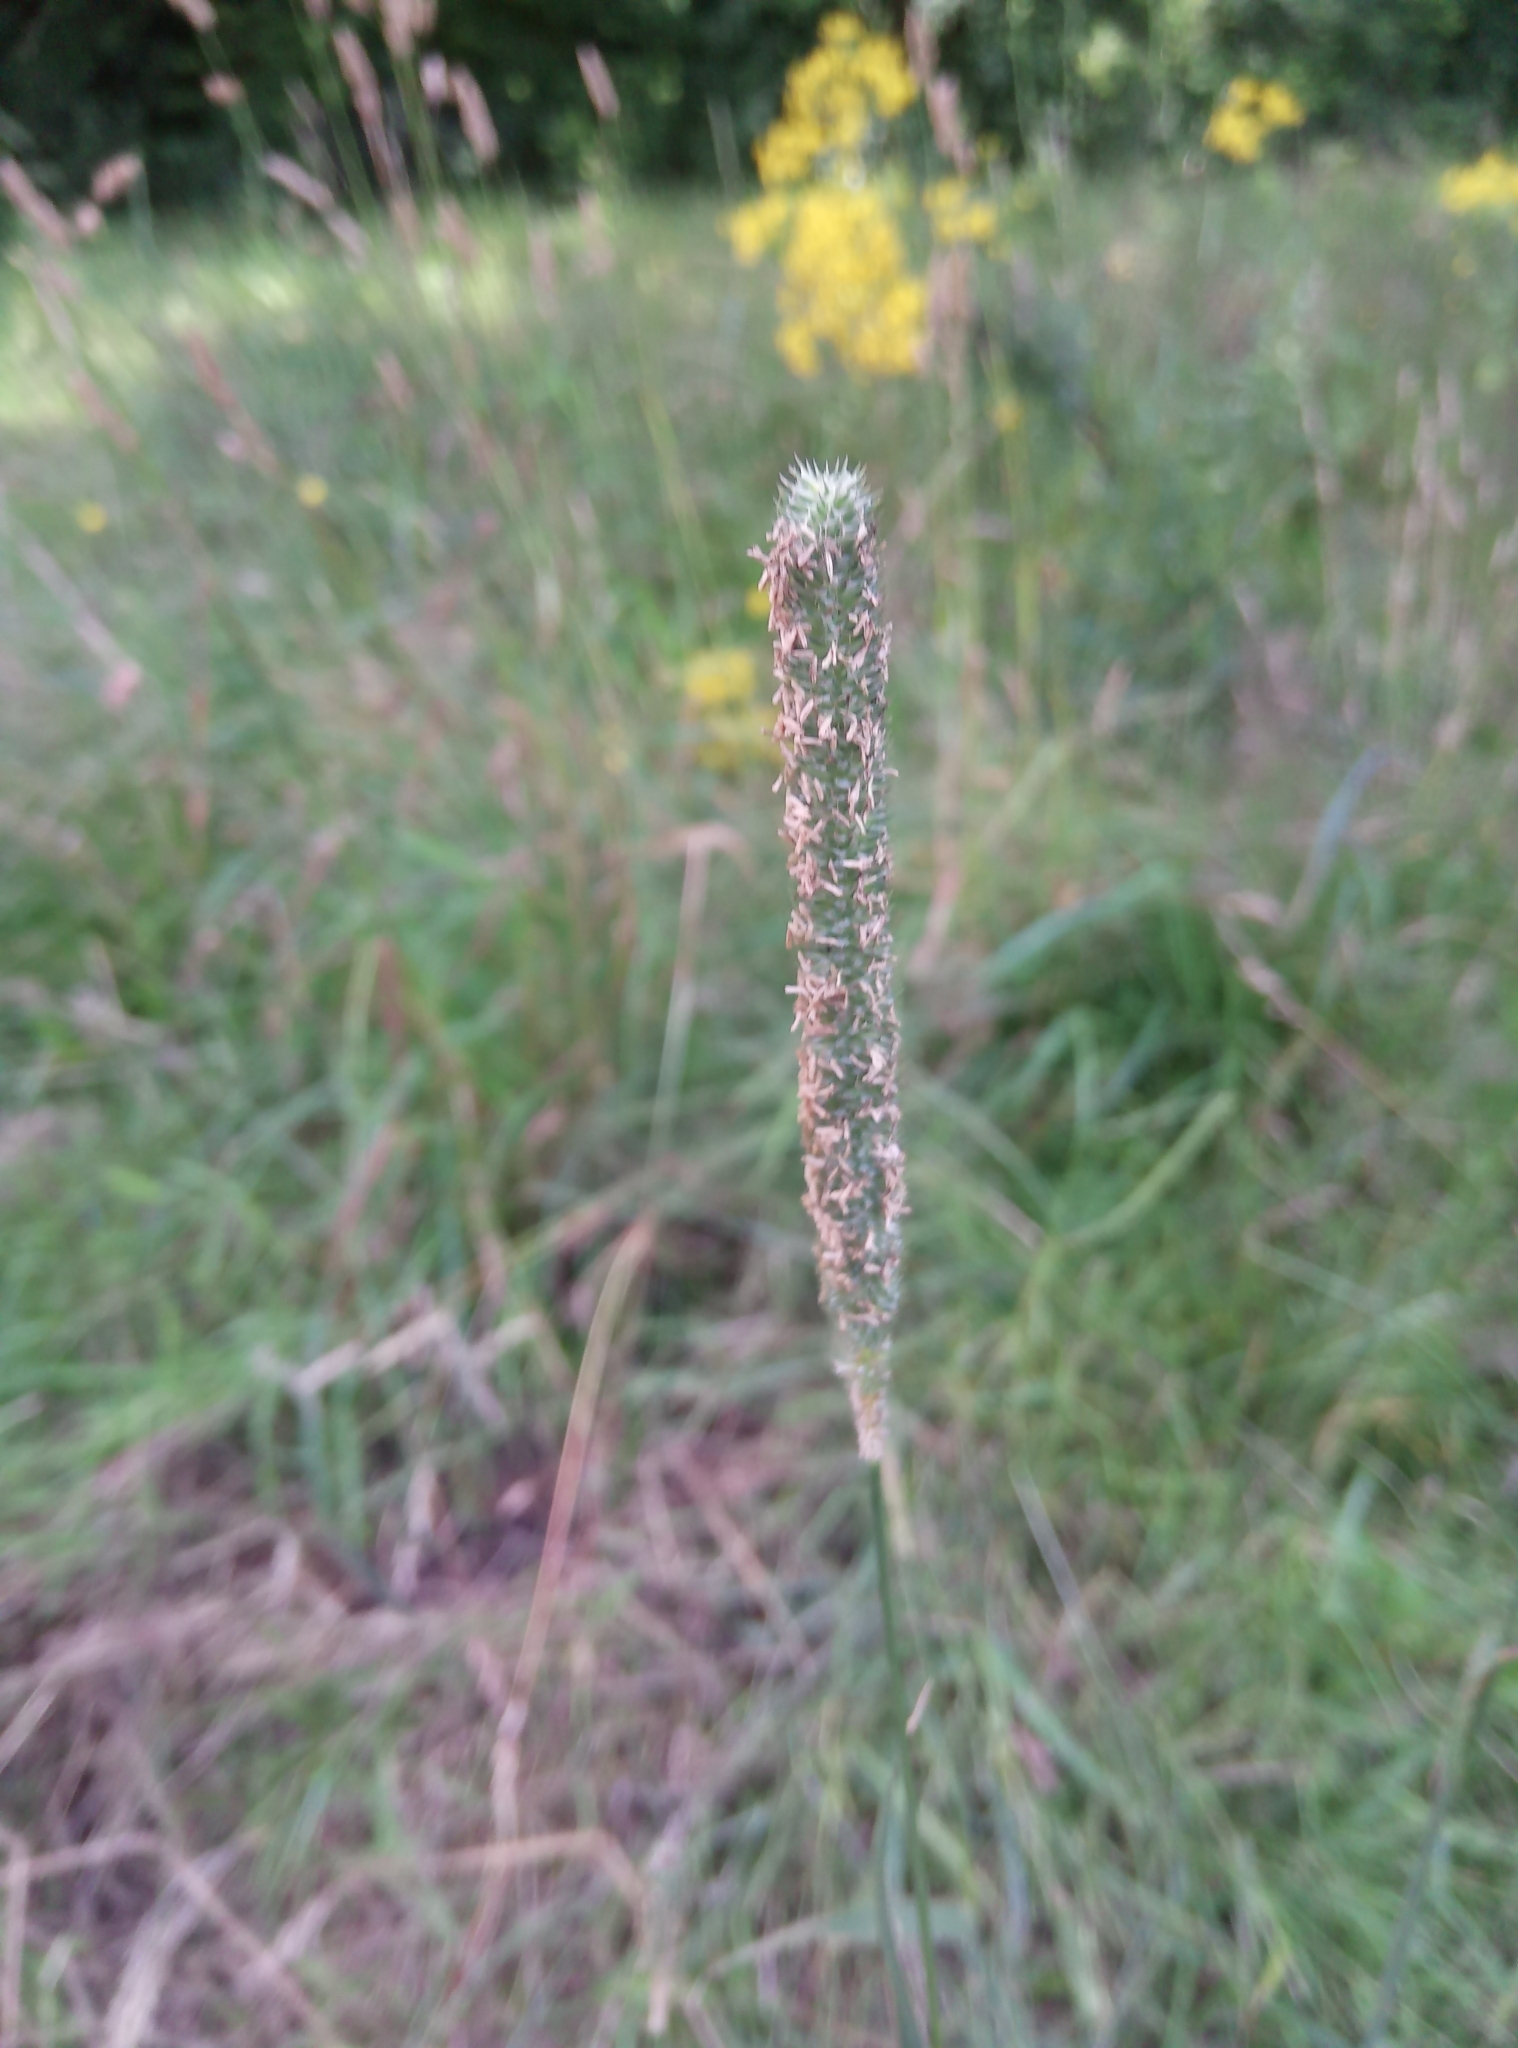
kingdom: Plantae
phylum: Tracheophyta
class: Liliopsida
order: Poales
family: Poaceae
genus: Phleum
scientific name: Phleum pratense
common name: Timothy grass
